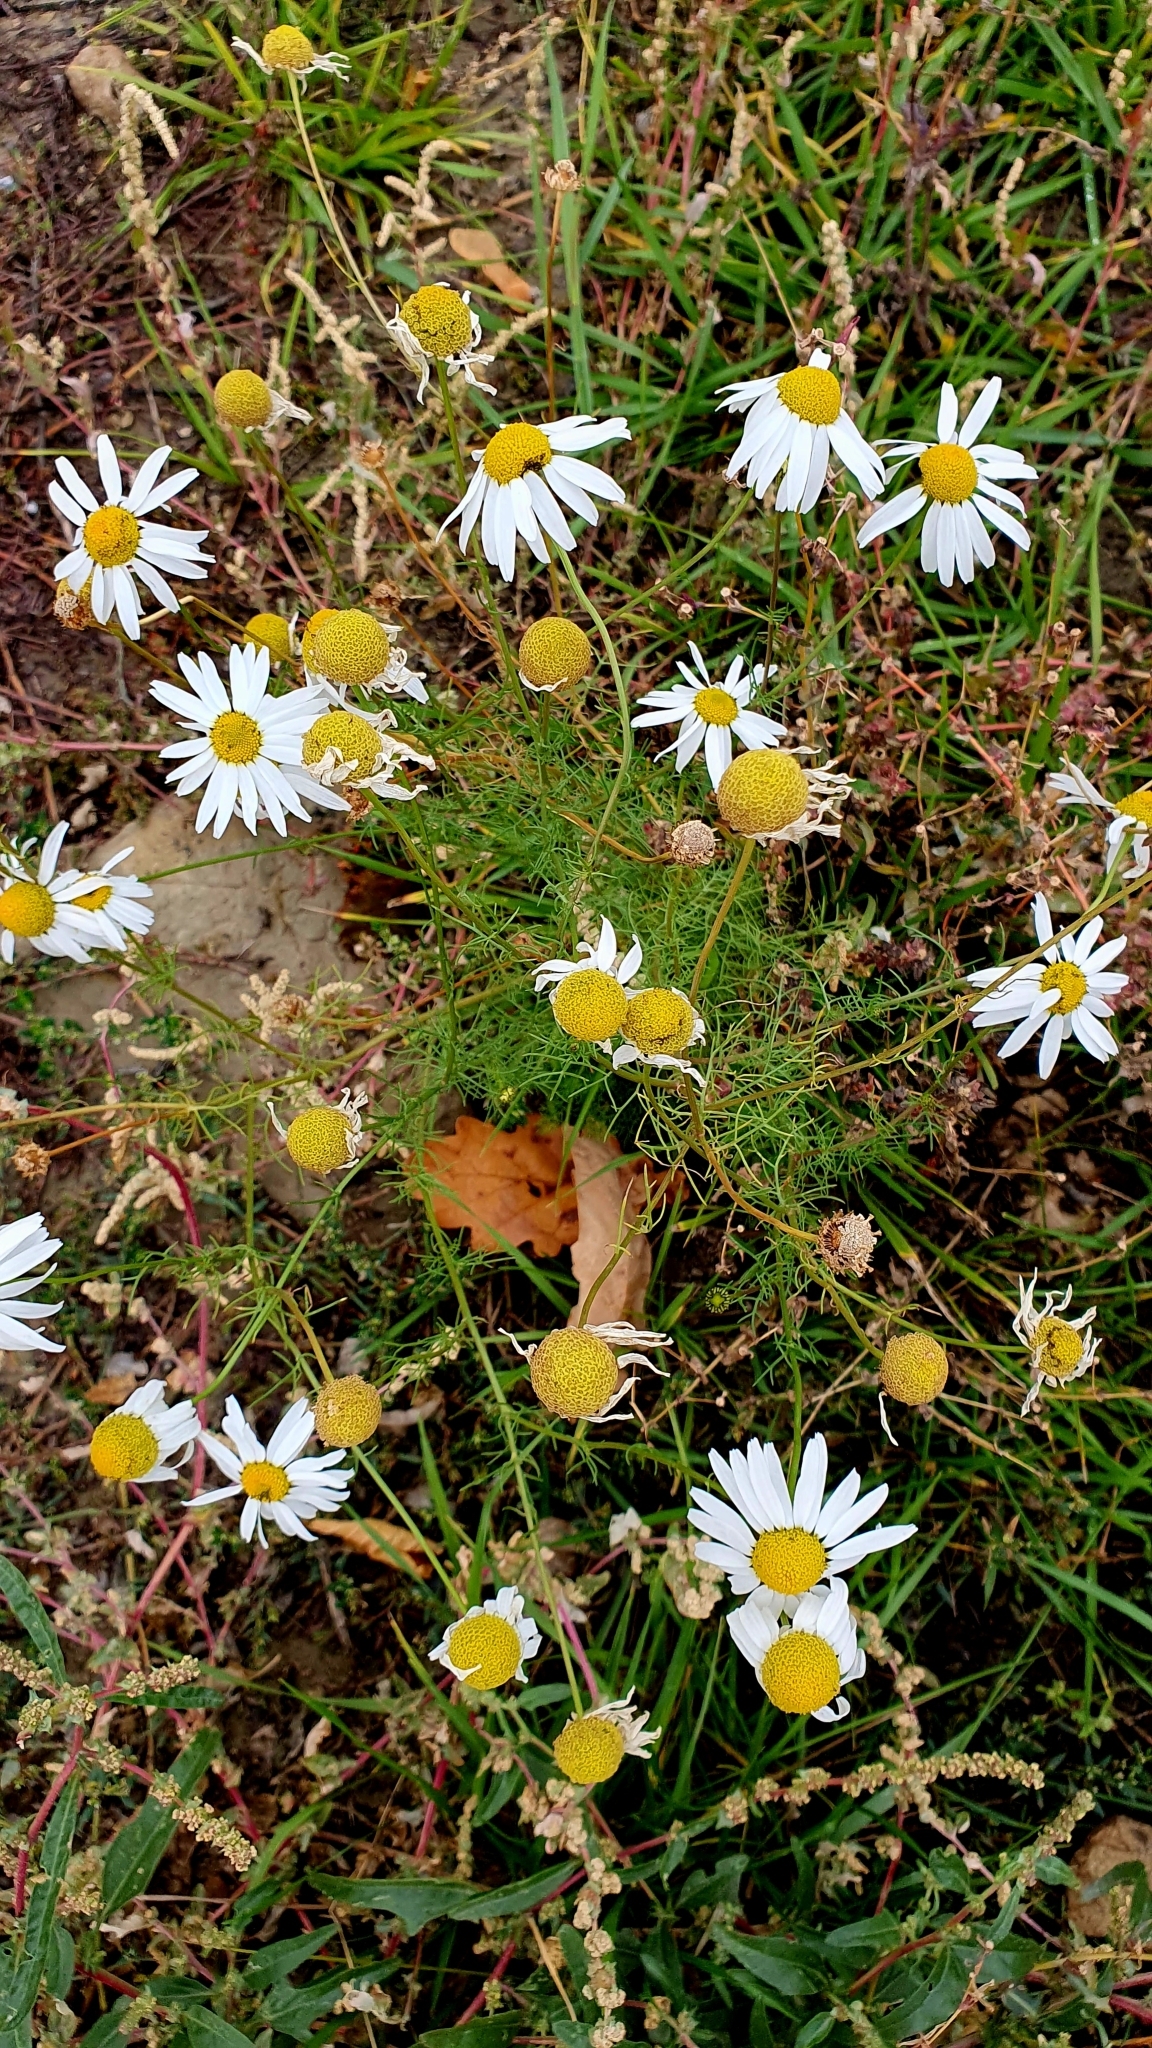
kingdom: Plantae
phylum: Tracheophyta
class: Magnoliopsida
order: Asterales
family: Asteraceae
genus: Tripleurospermum
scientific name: Tripleurospermum inodorum
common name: Scentless mayweed
